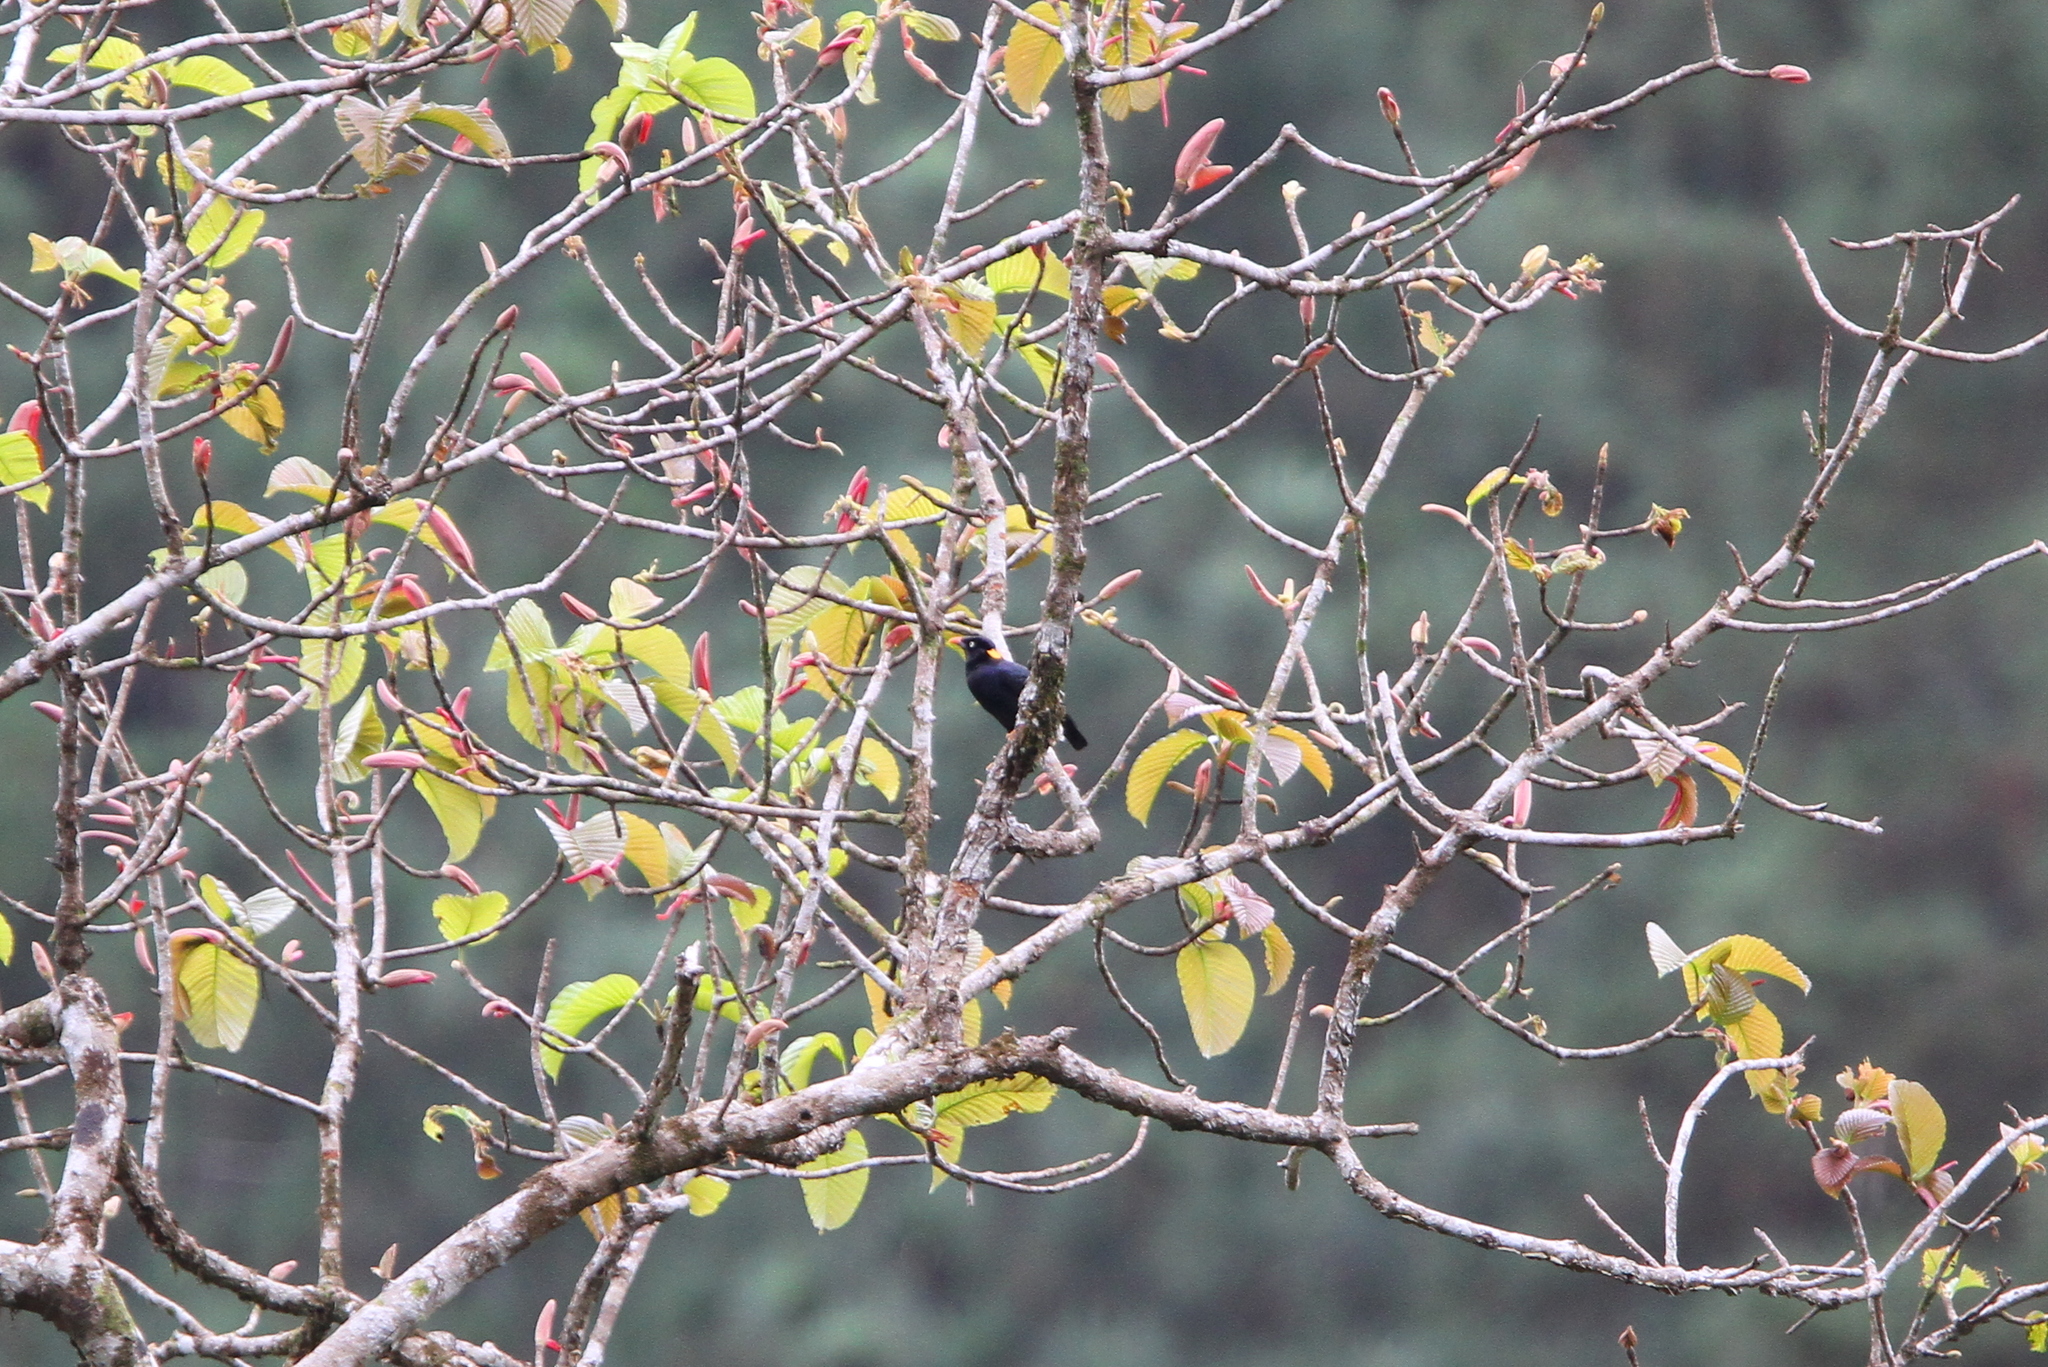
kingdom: Animalia
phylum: Chordata
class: Aves
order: Passeriformes
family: Sturnidae
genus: Gracula
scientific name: Gracula ptilogenys
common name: Sri lanka hill myna
